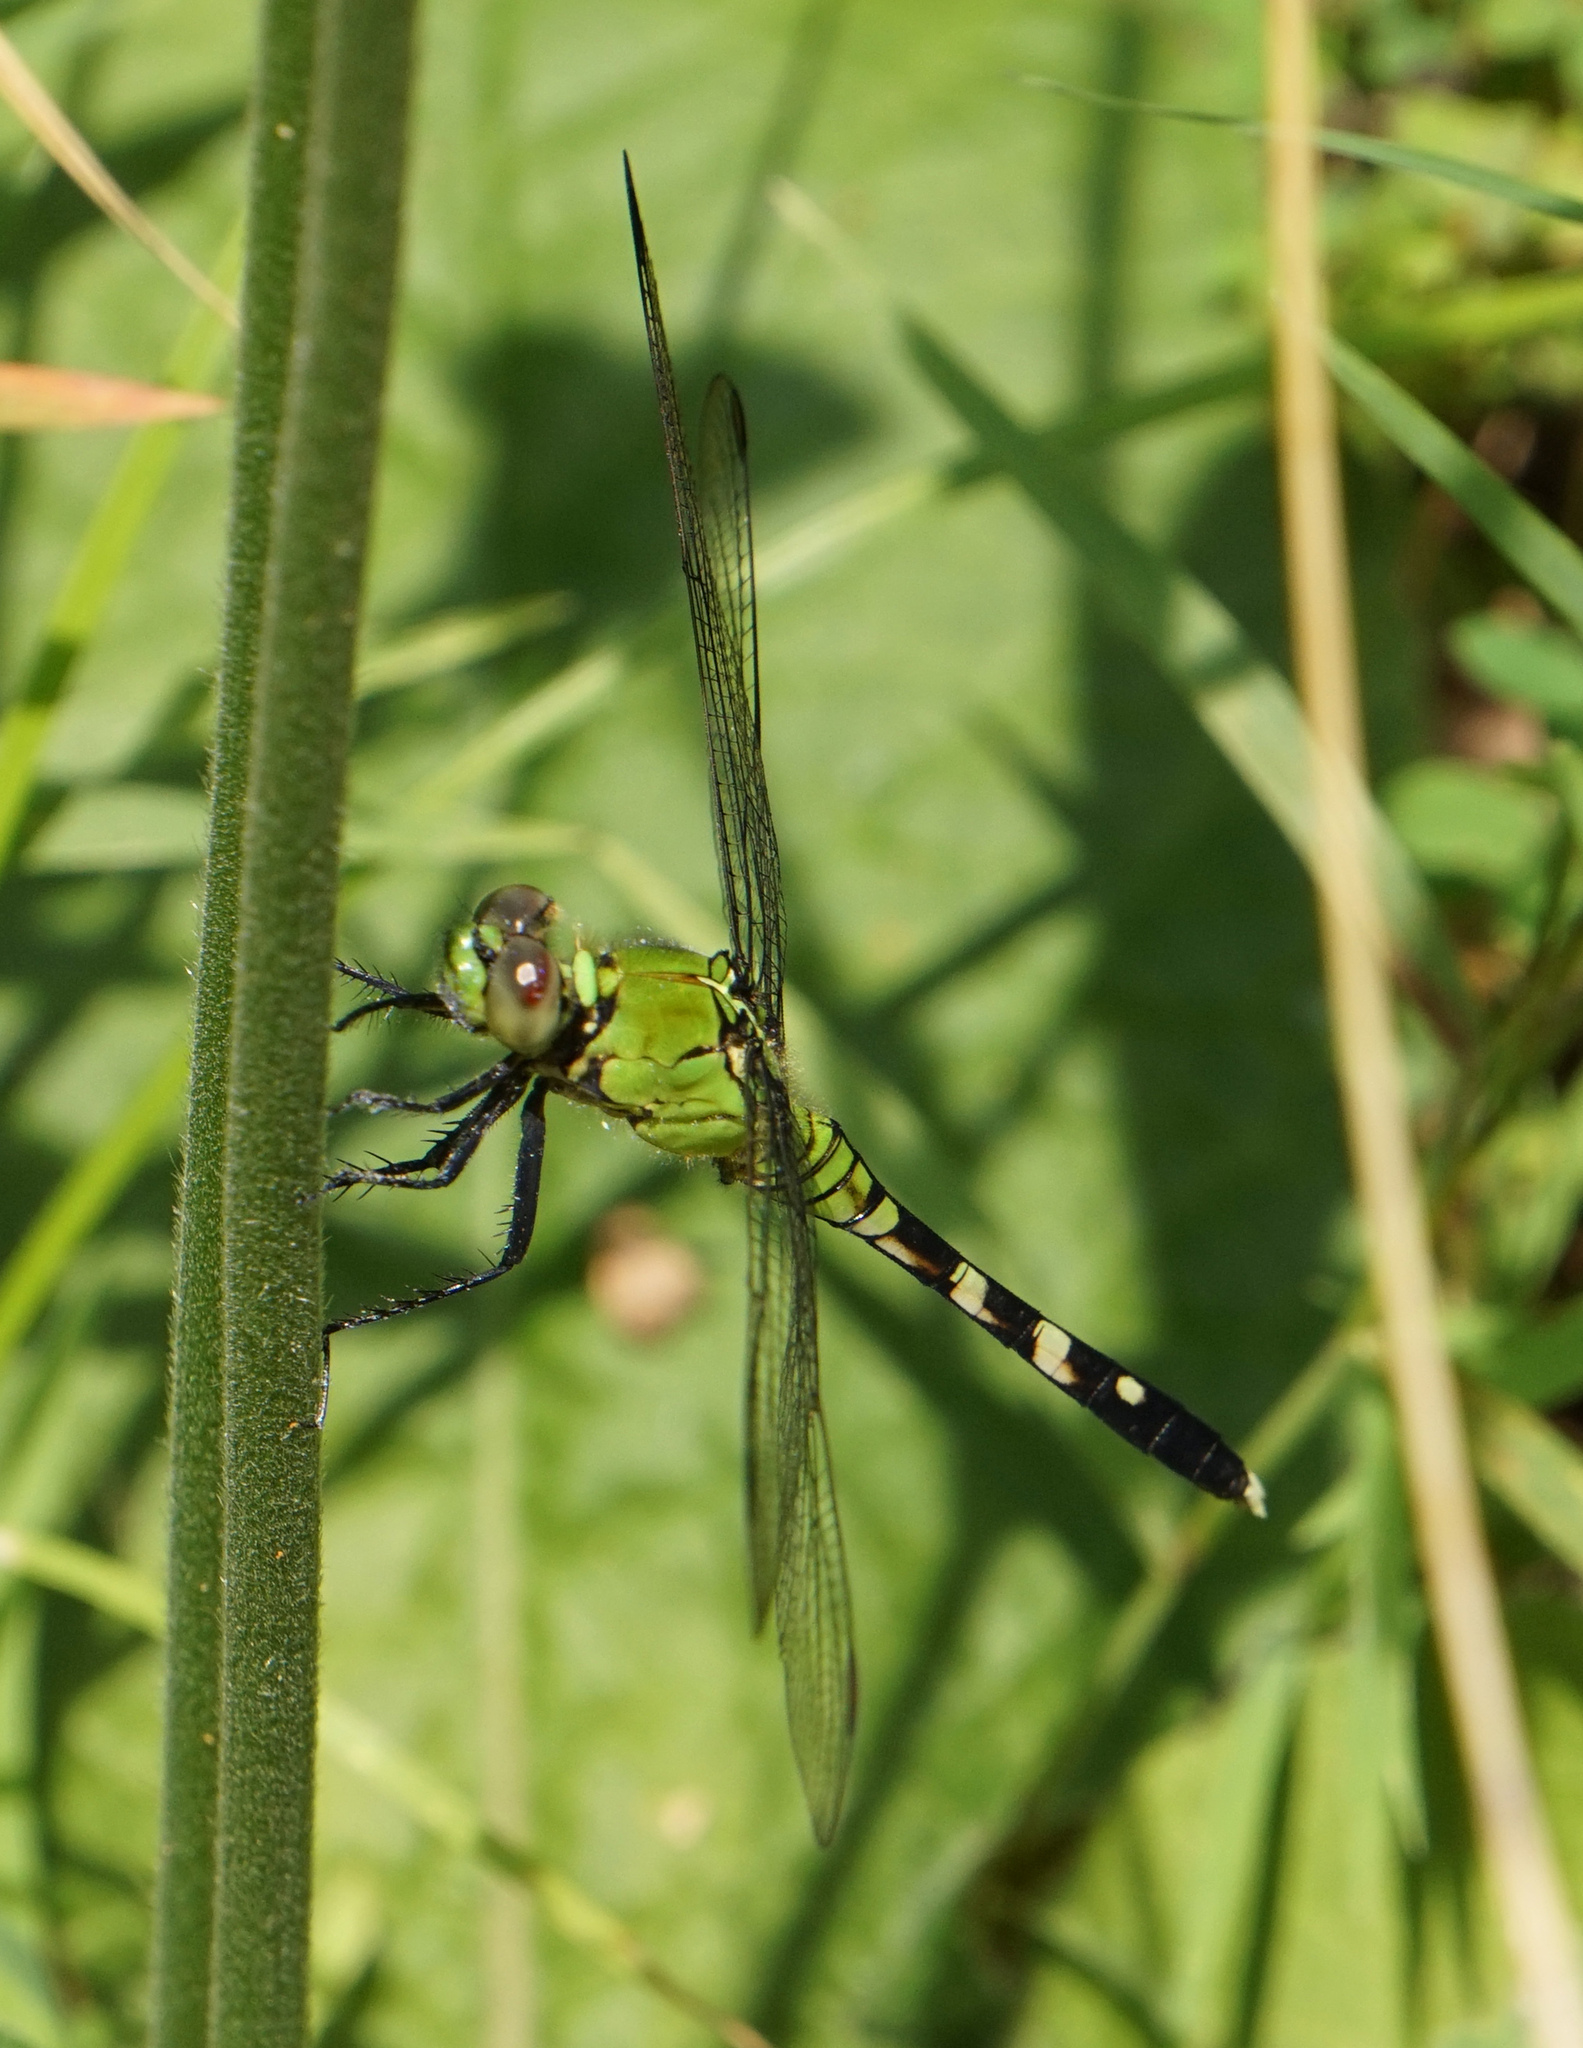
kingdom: Animalia
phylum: Arthropoda
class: Insecta
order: Odonata
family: Libellulidae
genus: Erythemis
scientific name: Erythemis simplicicollis
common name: Eastern pondhawk
